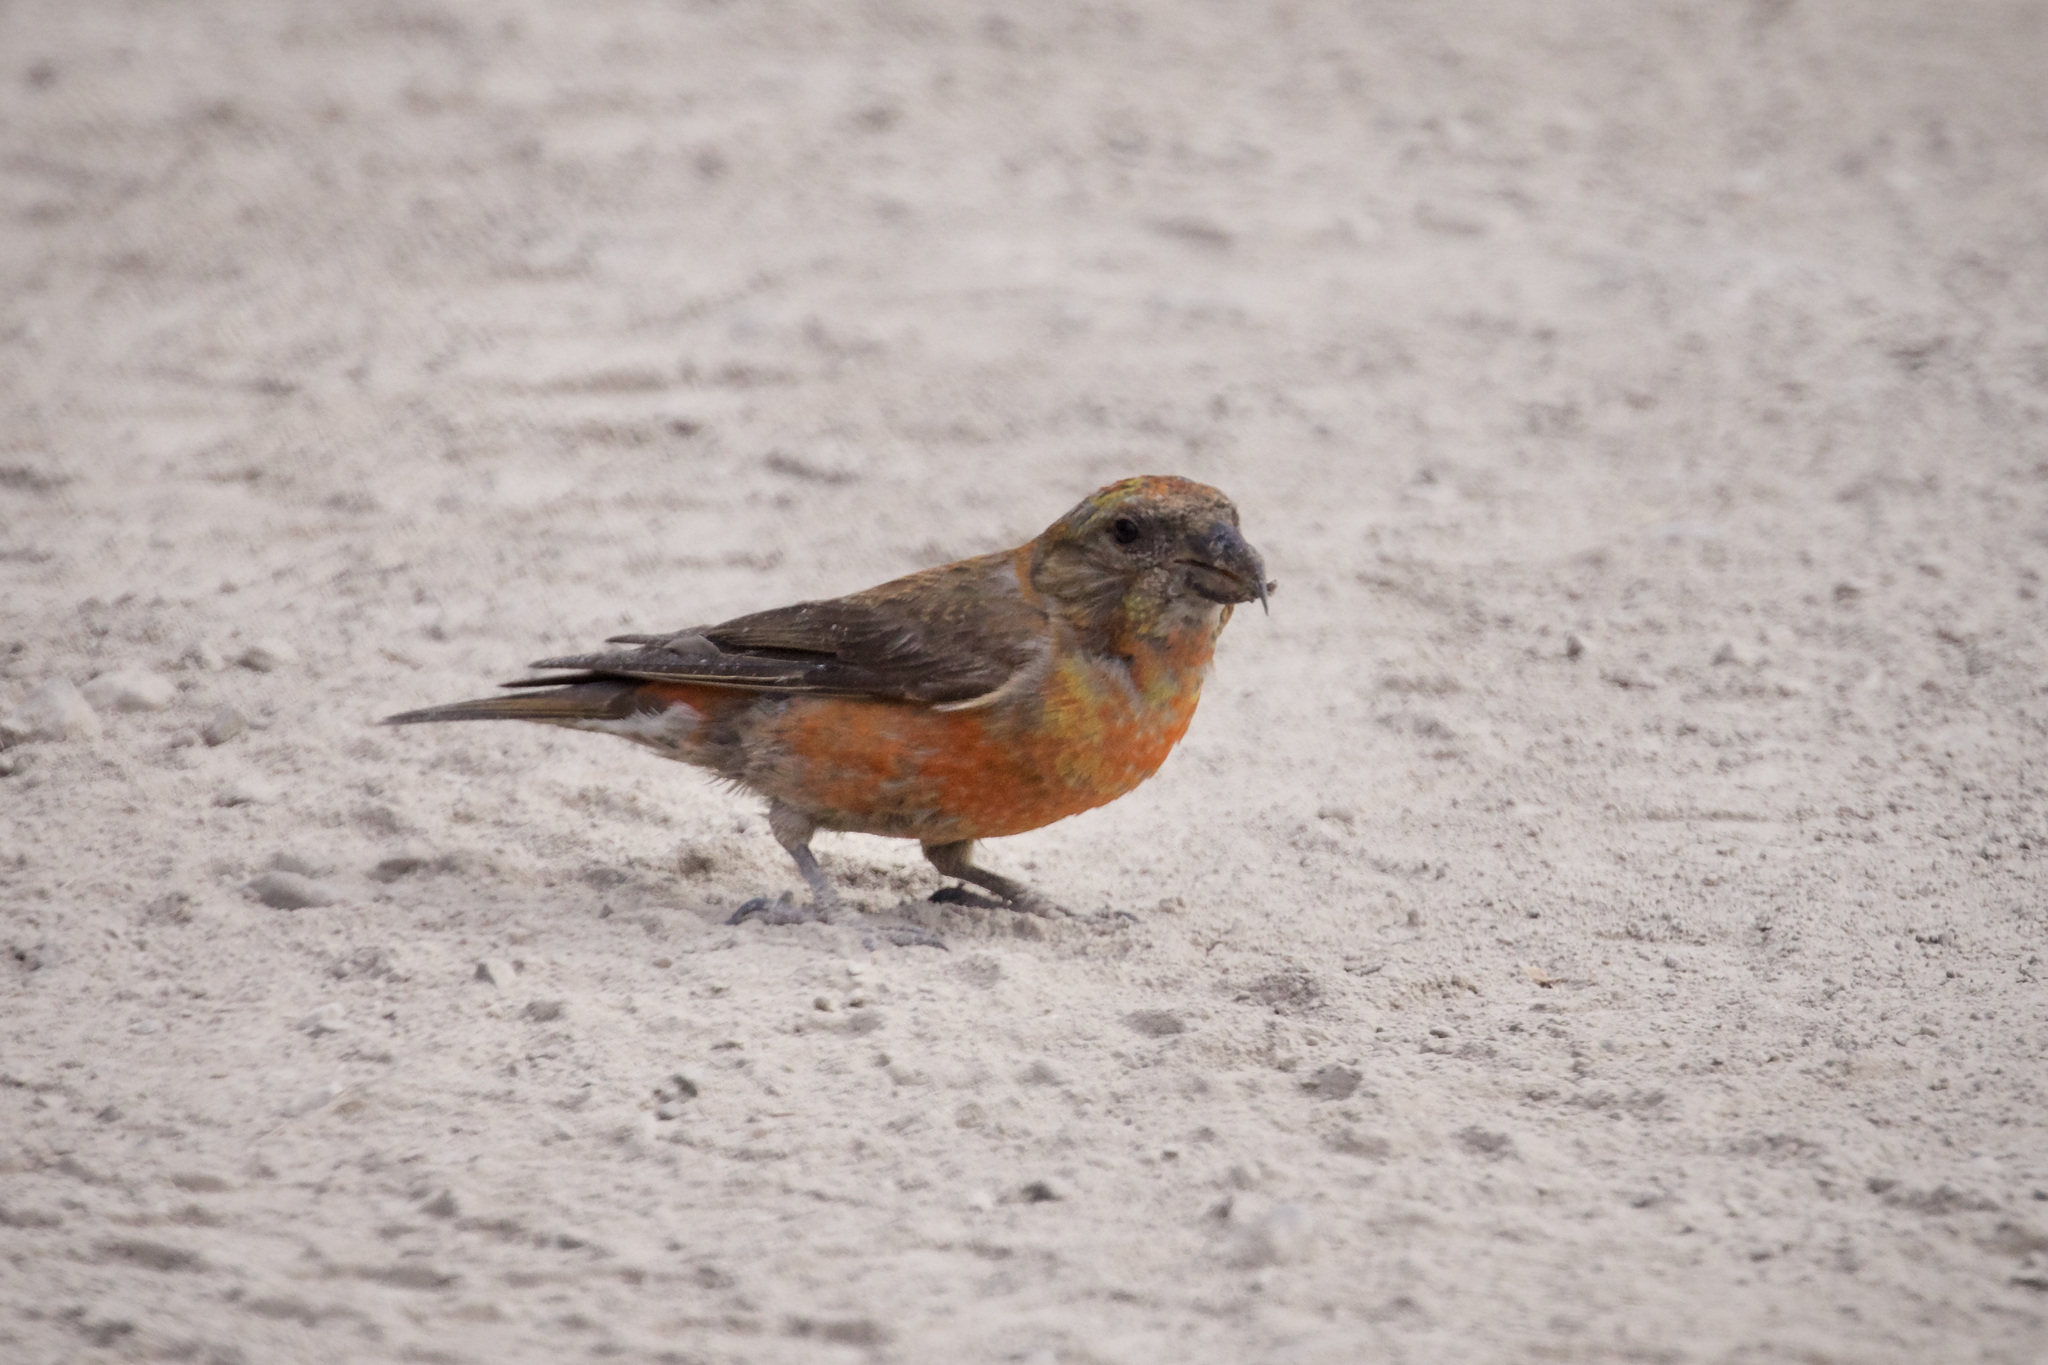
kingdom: Animalia
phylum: Chordata
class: Aves
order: Passeriformes
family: Fringillidae
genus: Loxia
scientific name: Loxia curvirostra
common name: Red crossbill
